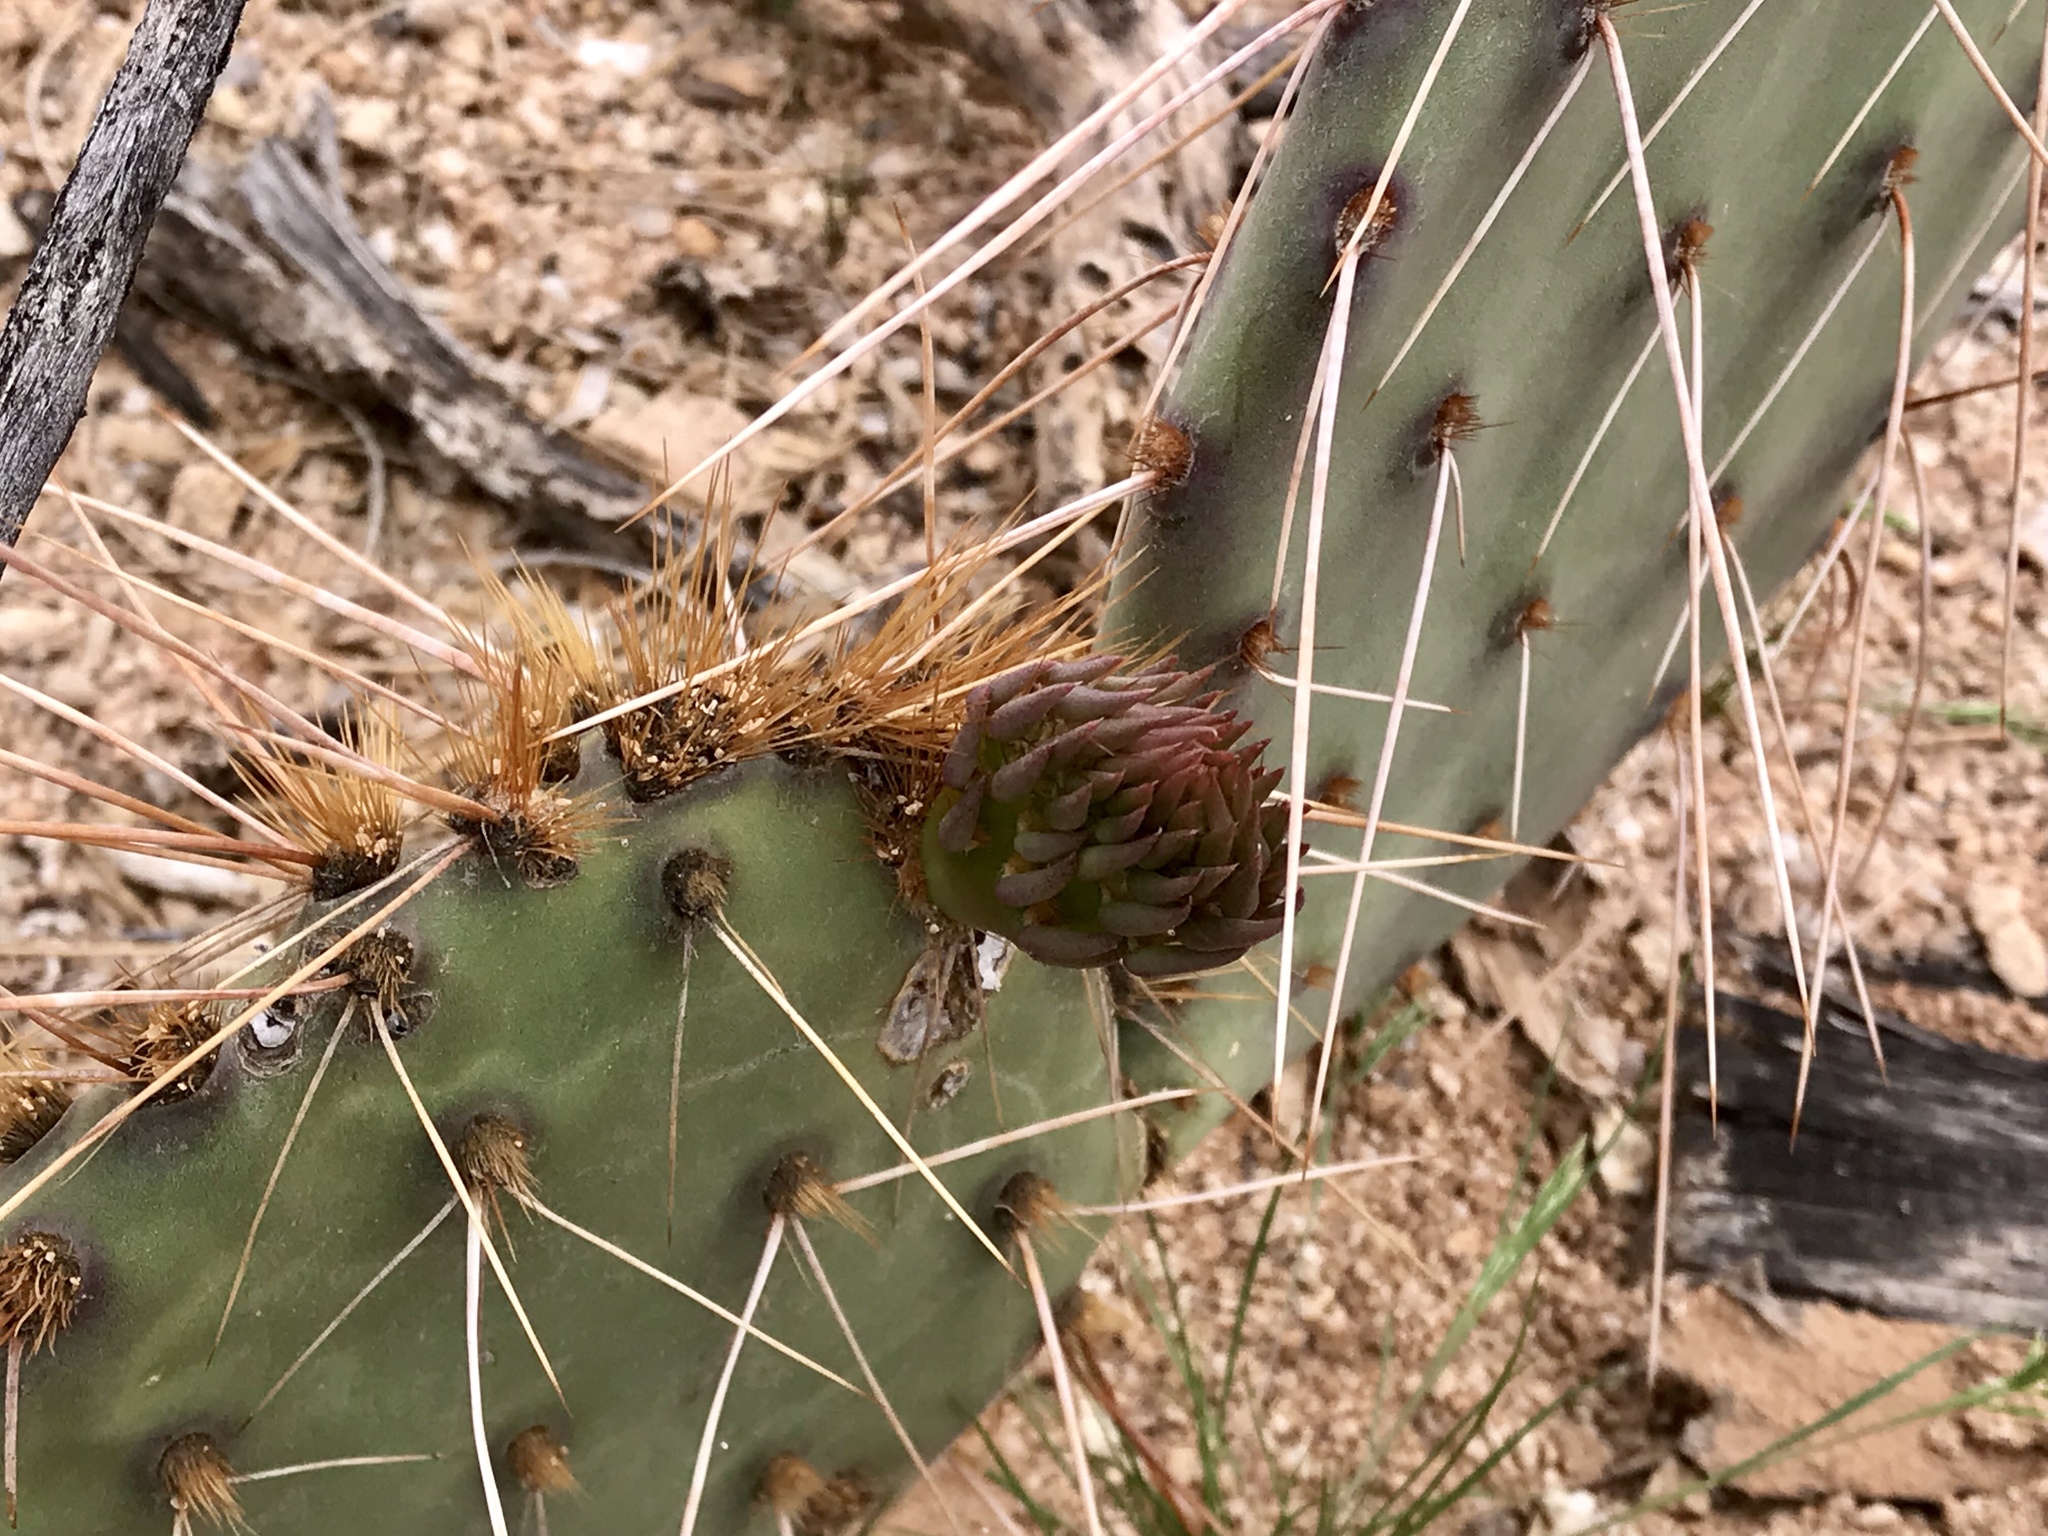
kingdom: Plantae
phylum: Tracheophyta
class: Magnoliopsida
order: Caryophyllales
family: Cactaceae
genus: Opuntia
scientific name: Opuntia phaeacantha
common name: New mexico prickly-pear
